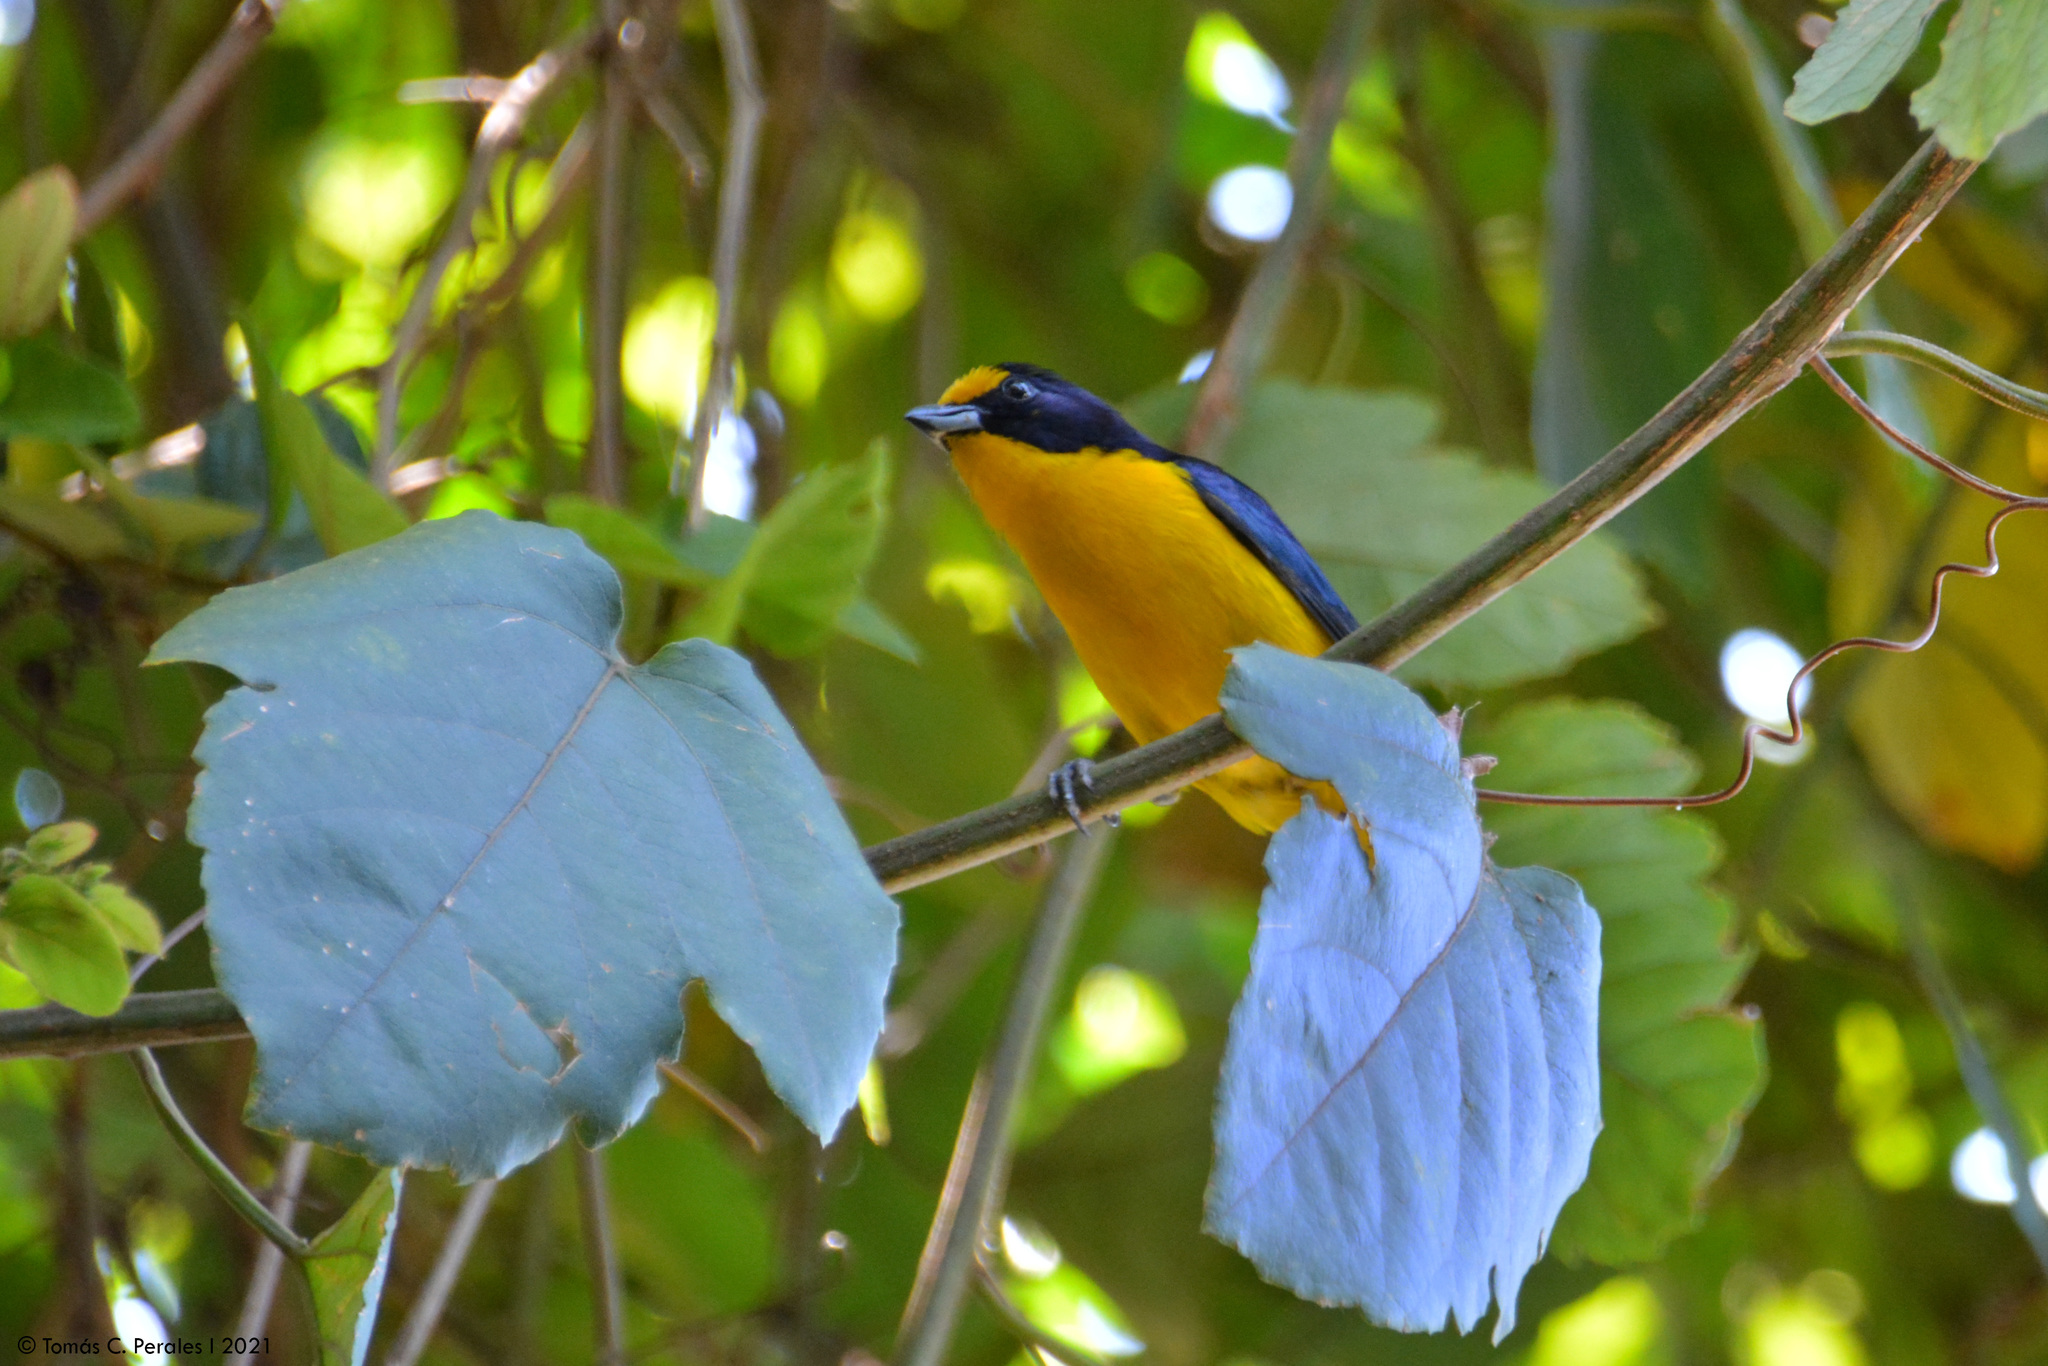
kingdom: Animalia
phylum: Chordata
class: Aves
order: Passeriformes
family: Fringillidae
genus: Euphonia
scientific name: Euphonia violacea
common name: Violaceous euphonia
